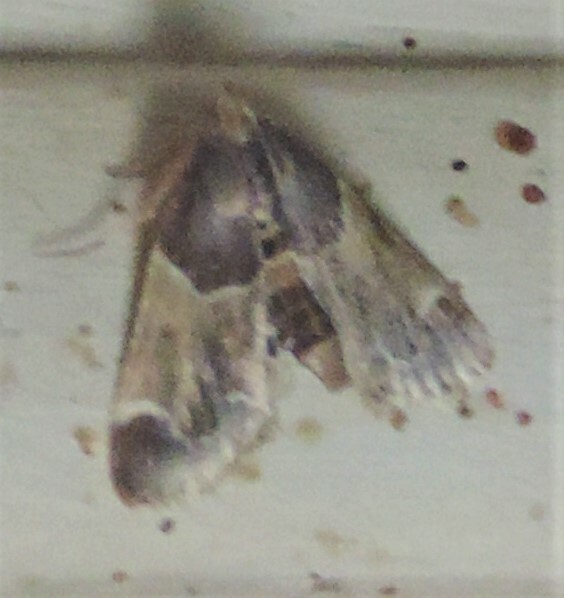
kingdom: Animalia
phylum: Arthropoda
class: Insecta
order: Lepidoptera
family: Pyralidae
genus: Pyralis
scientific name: Pyralis farinalis
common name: Meal moth
